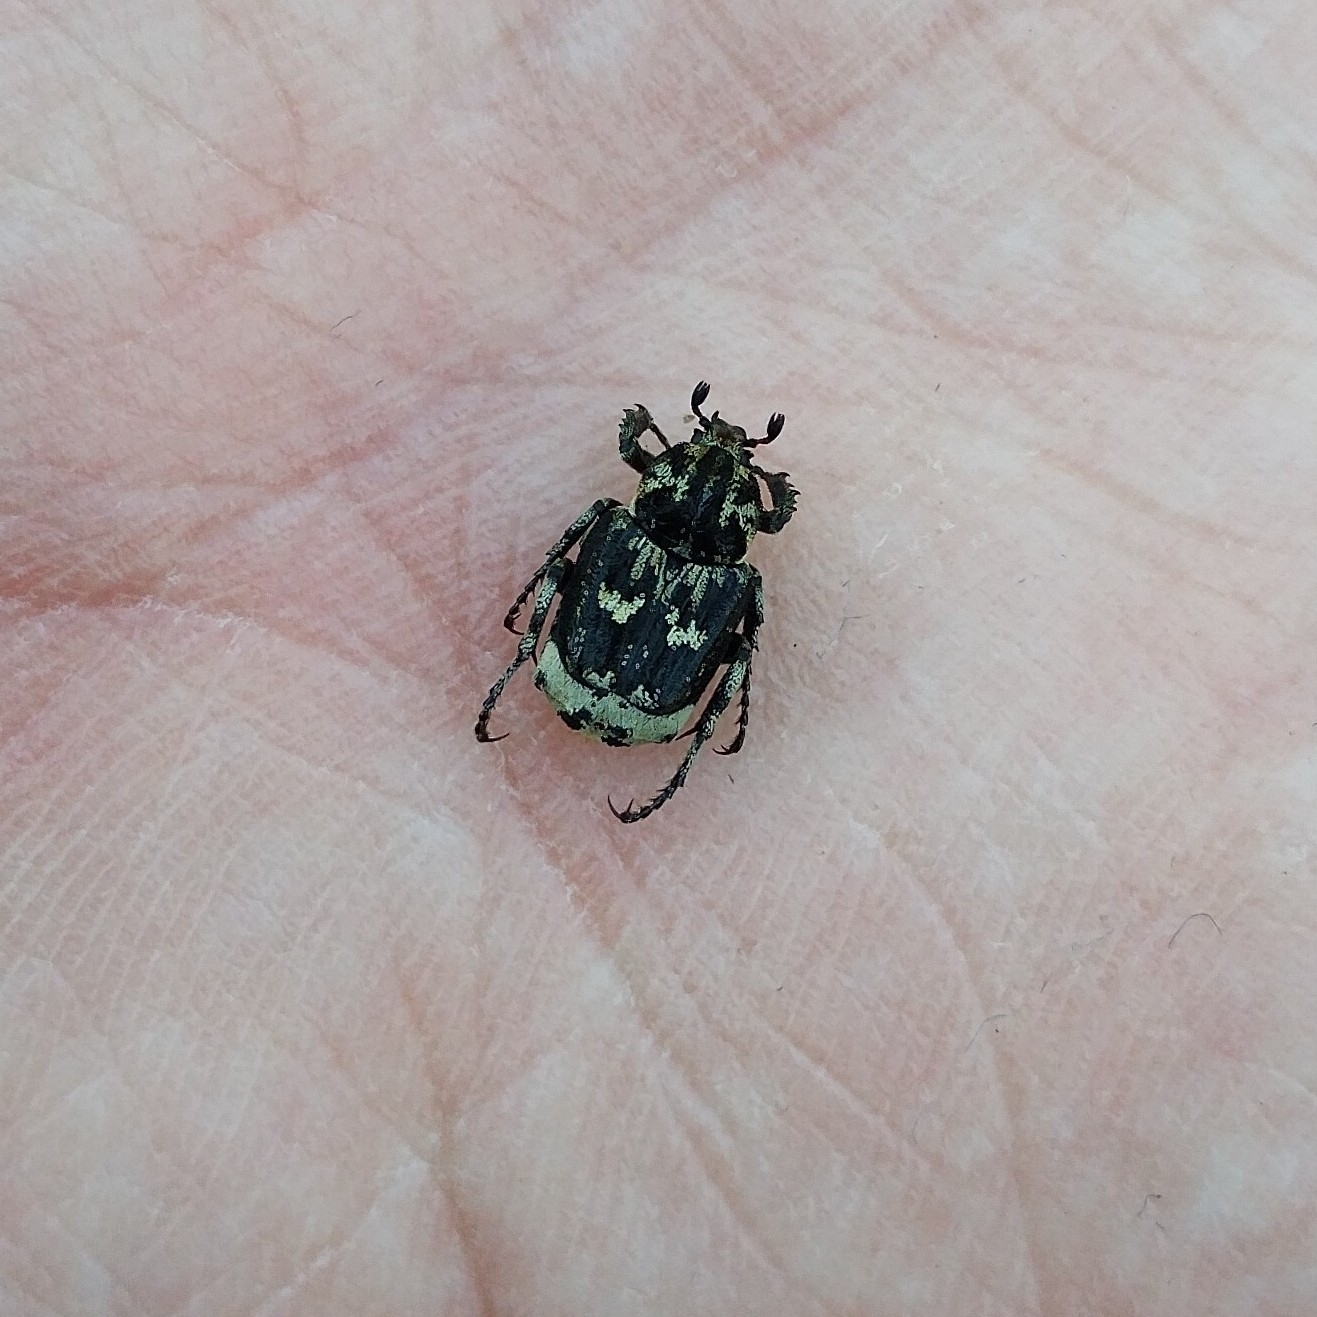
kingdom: Animalia
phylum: Arthropoda
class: Insecta
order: Coleoptera
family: Scarabaeidae
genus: Valgus
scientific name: Valgus hemipterus
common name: Bug flower chafer
